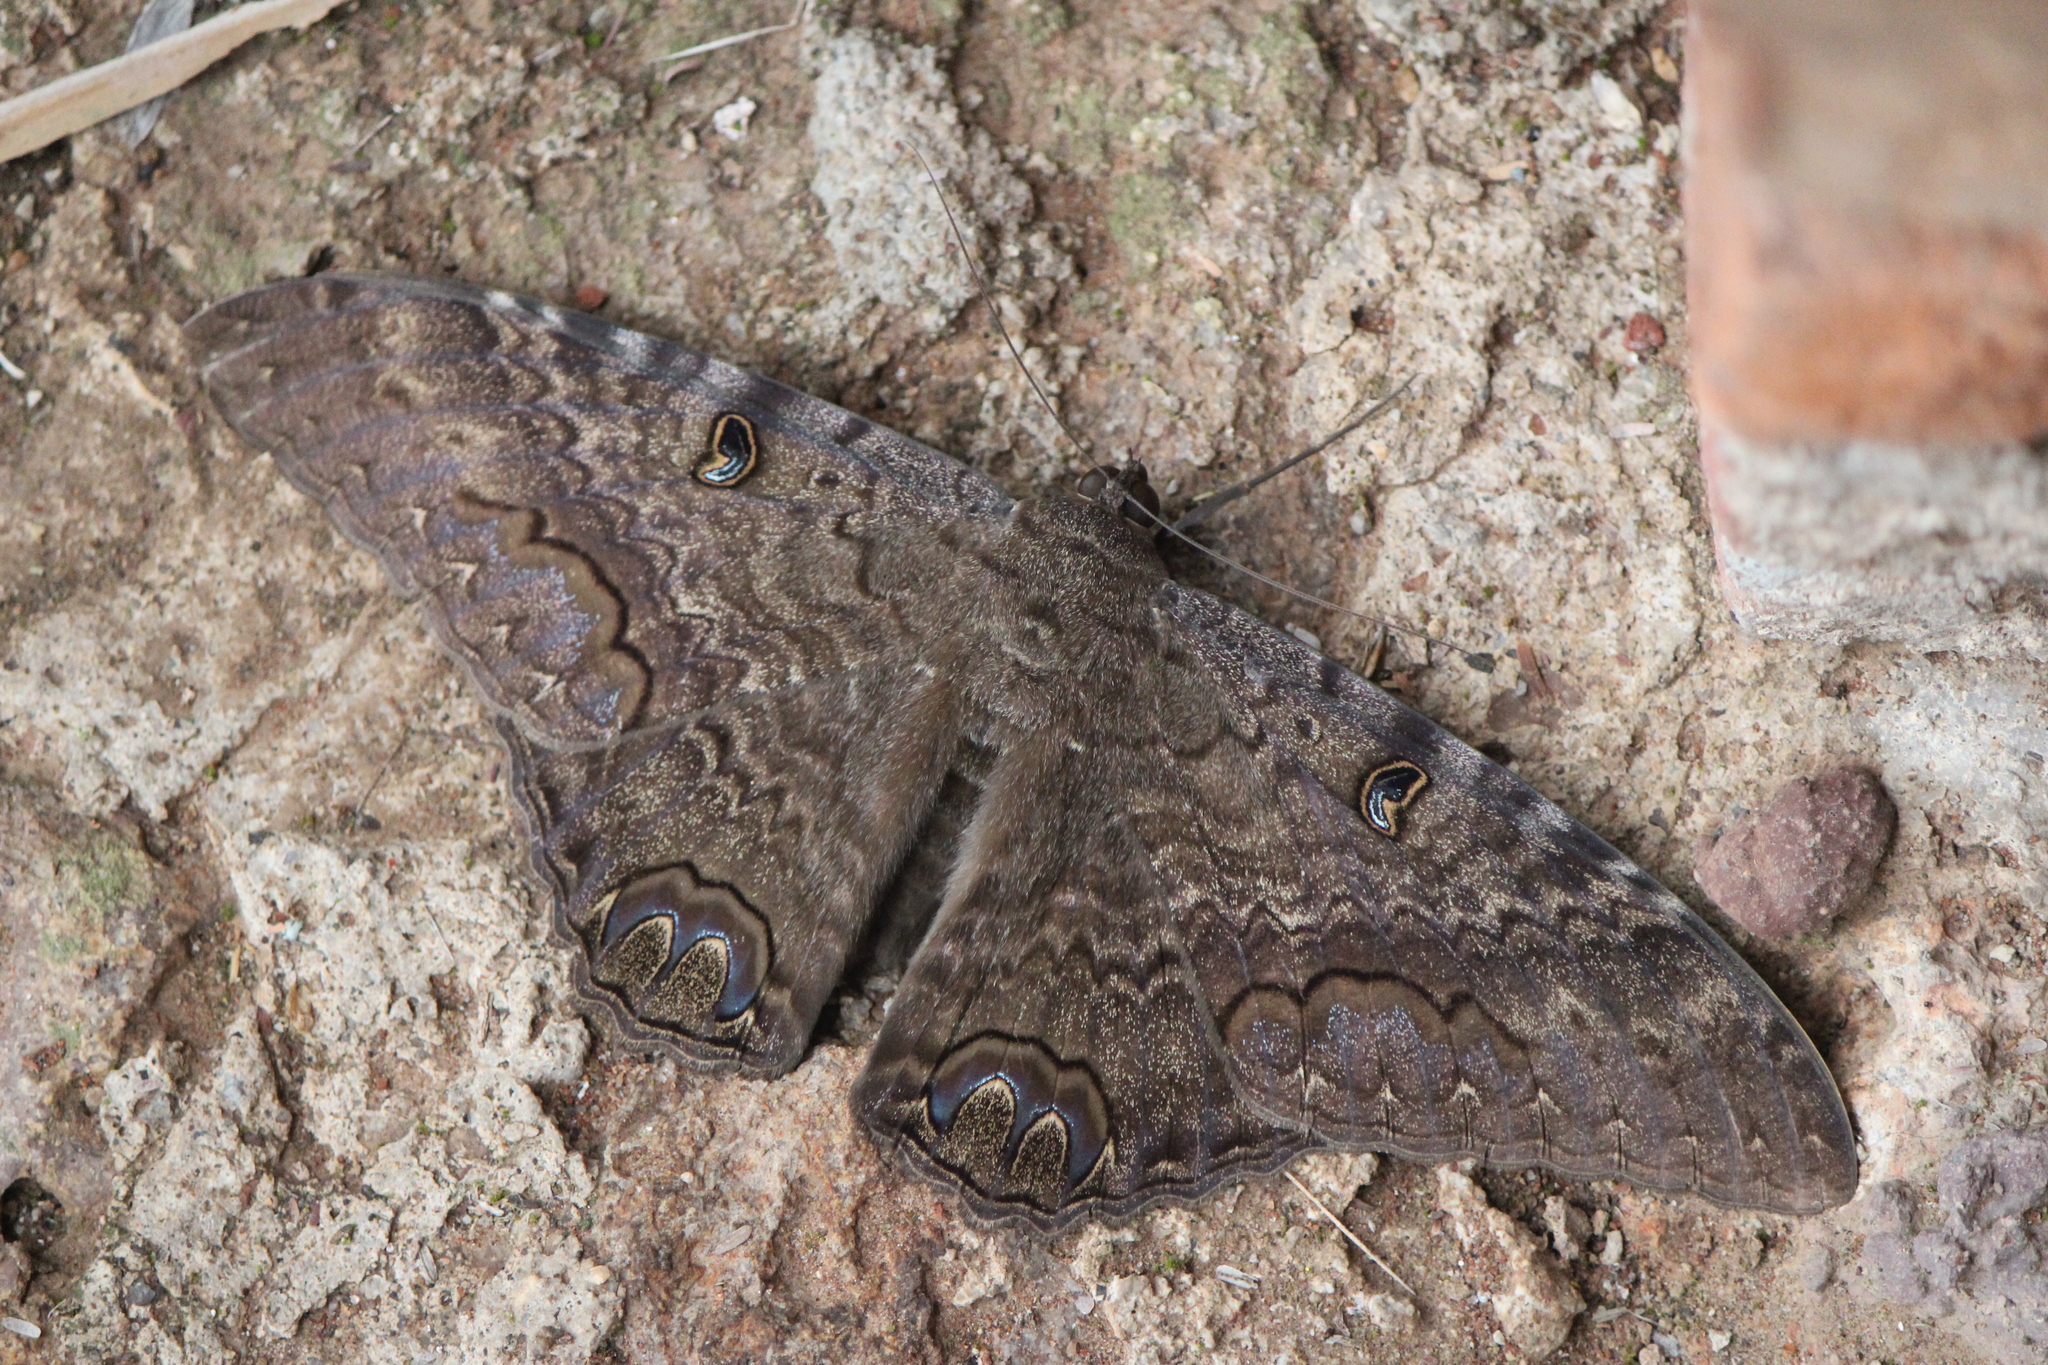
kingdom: Animalia
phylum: Arthropoda
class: Insecta
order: Lepidoptera
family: Erebidae
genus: Ascalapha
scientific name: Ascalapha odorata
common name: Black witch
